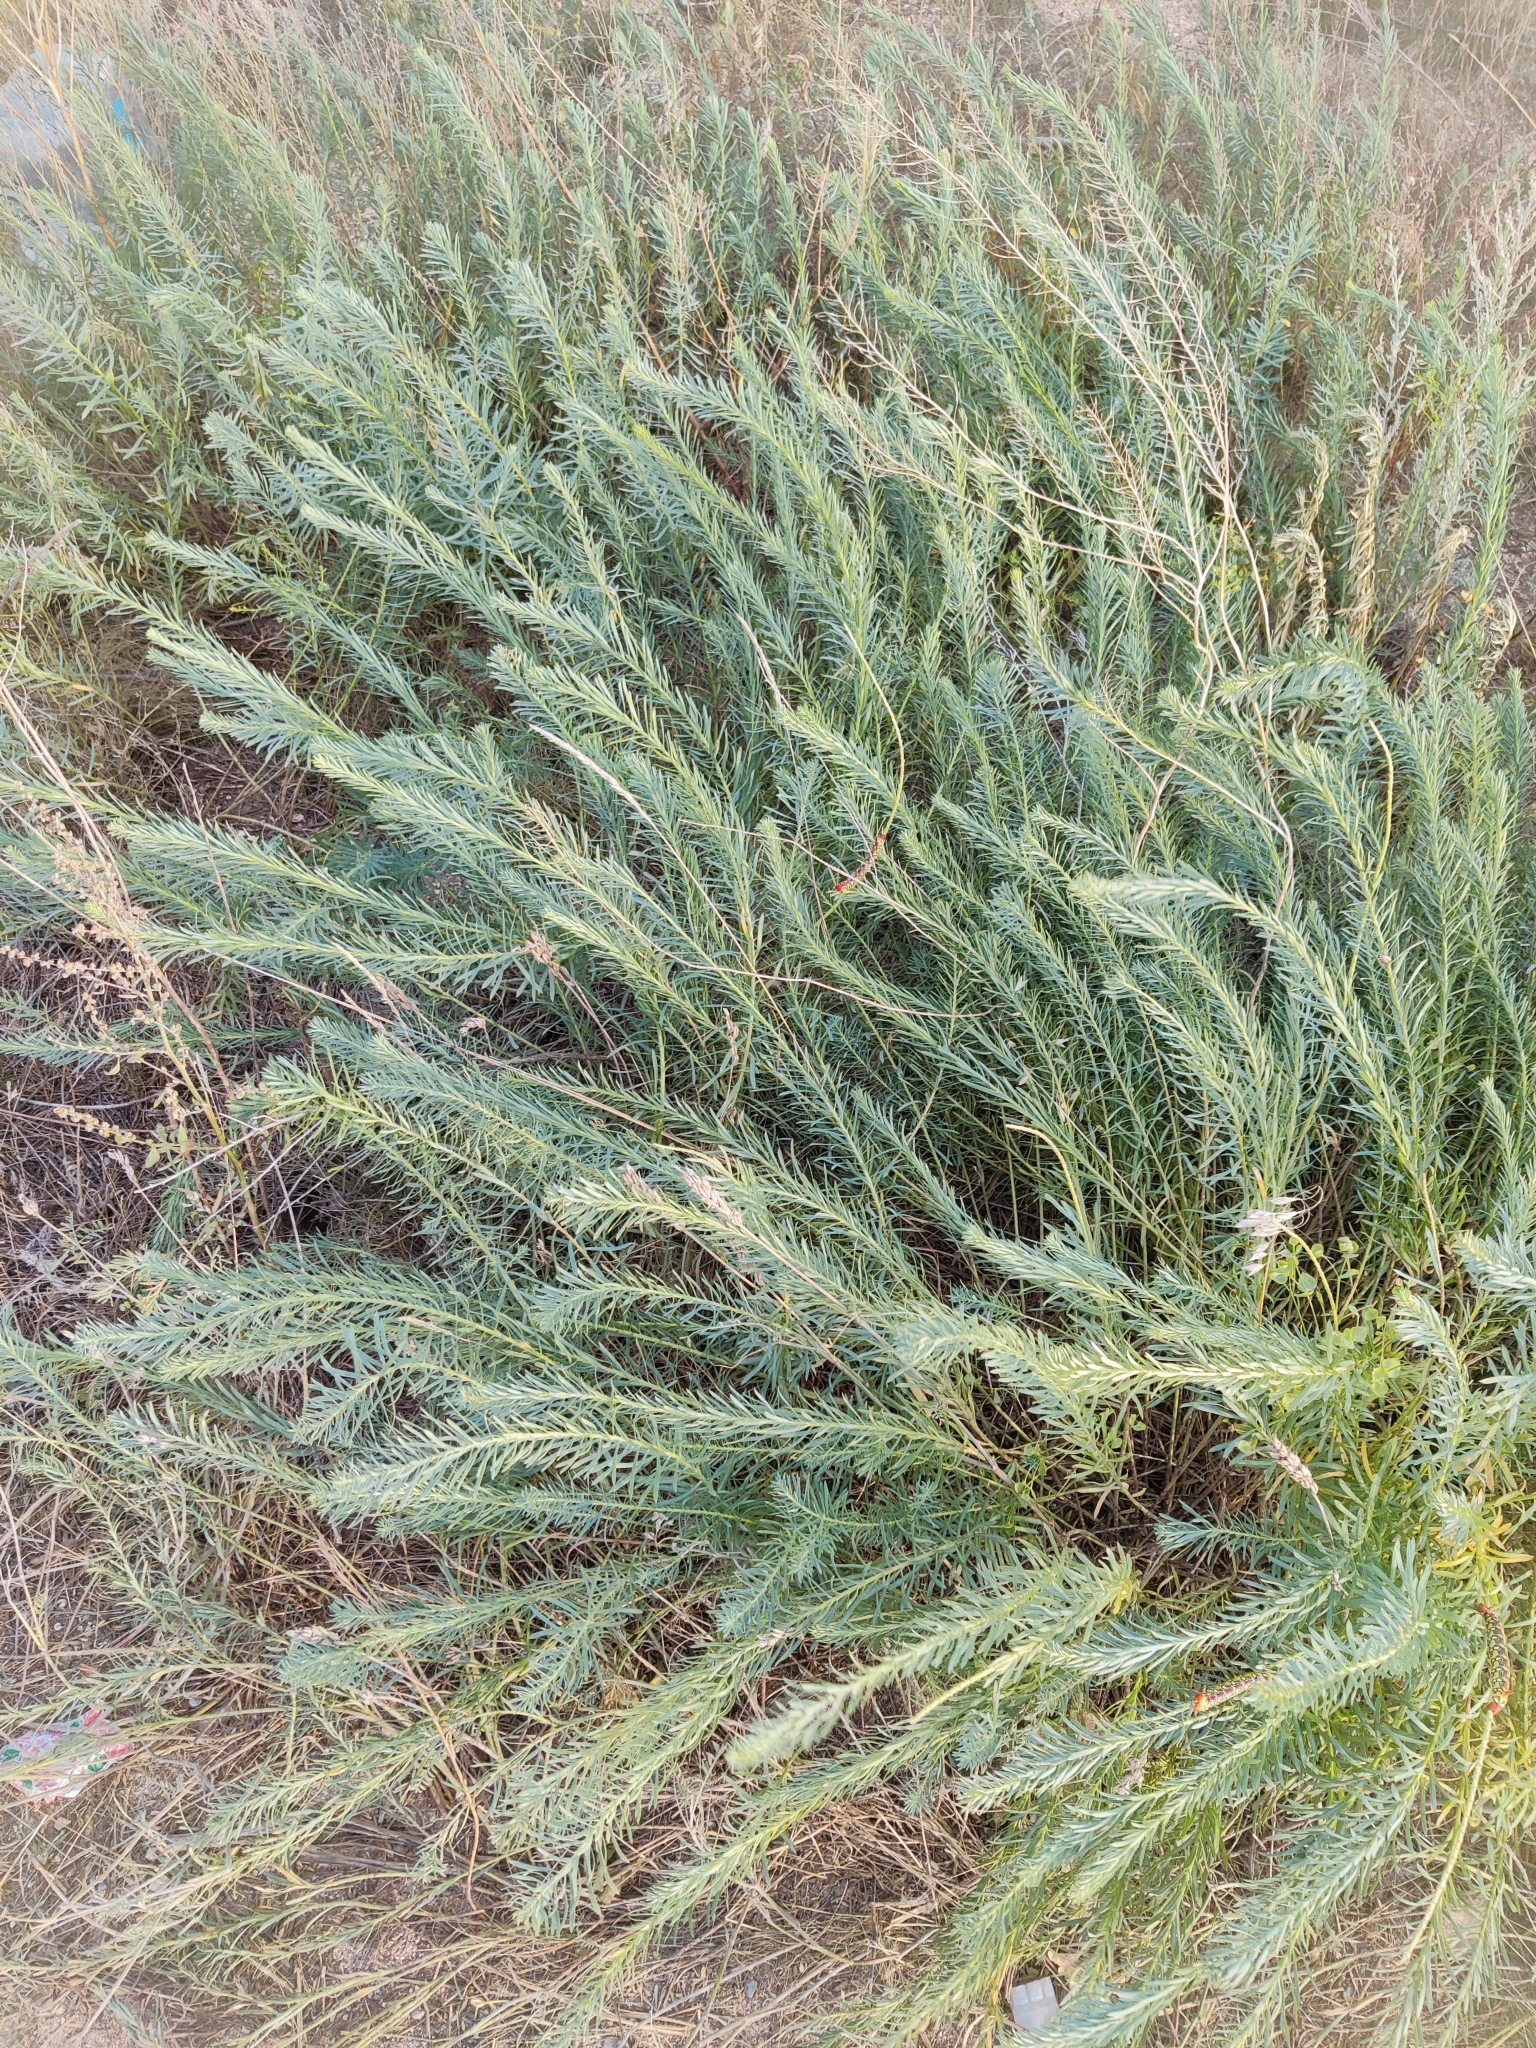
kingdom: Plantae
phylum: Tracheophyta
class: Magnoliopsida
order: Malpighiales
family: Euphorbiaceae
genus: Euphorbia
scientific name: Euphorbia seguieriana
